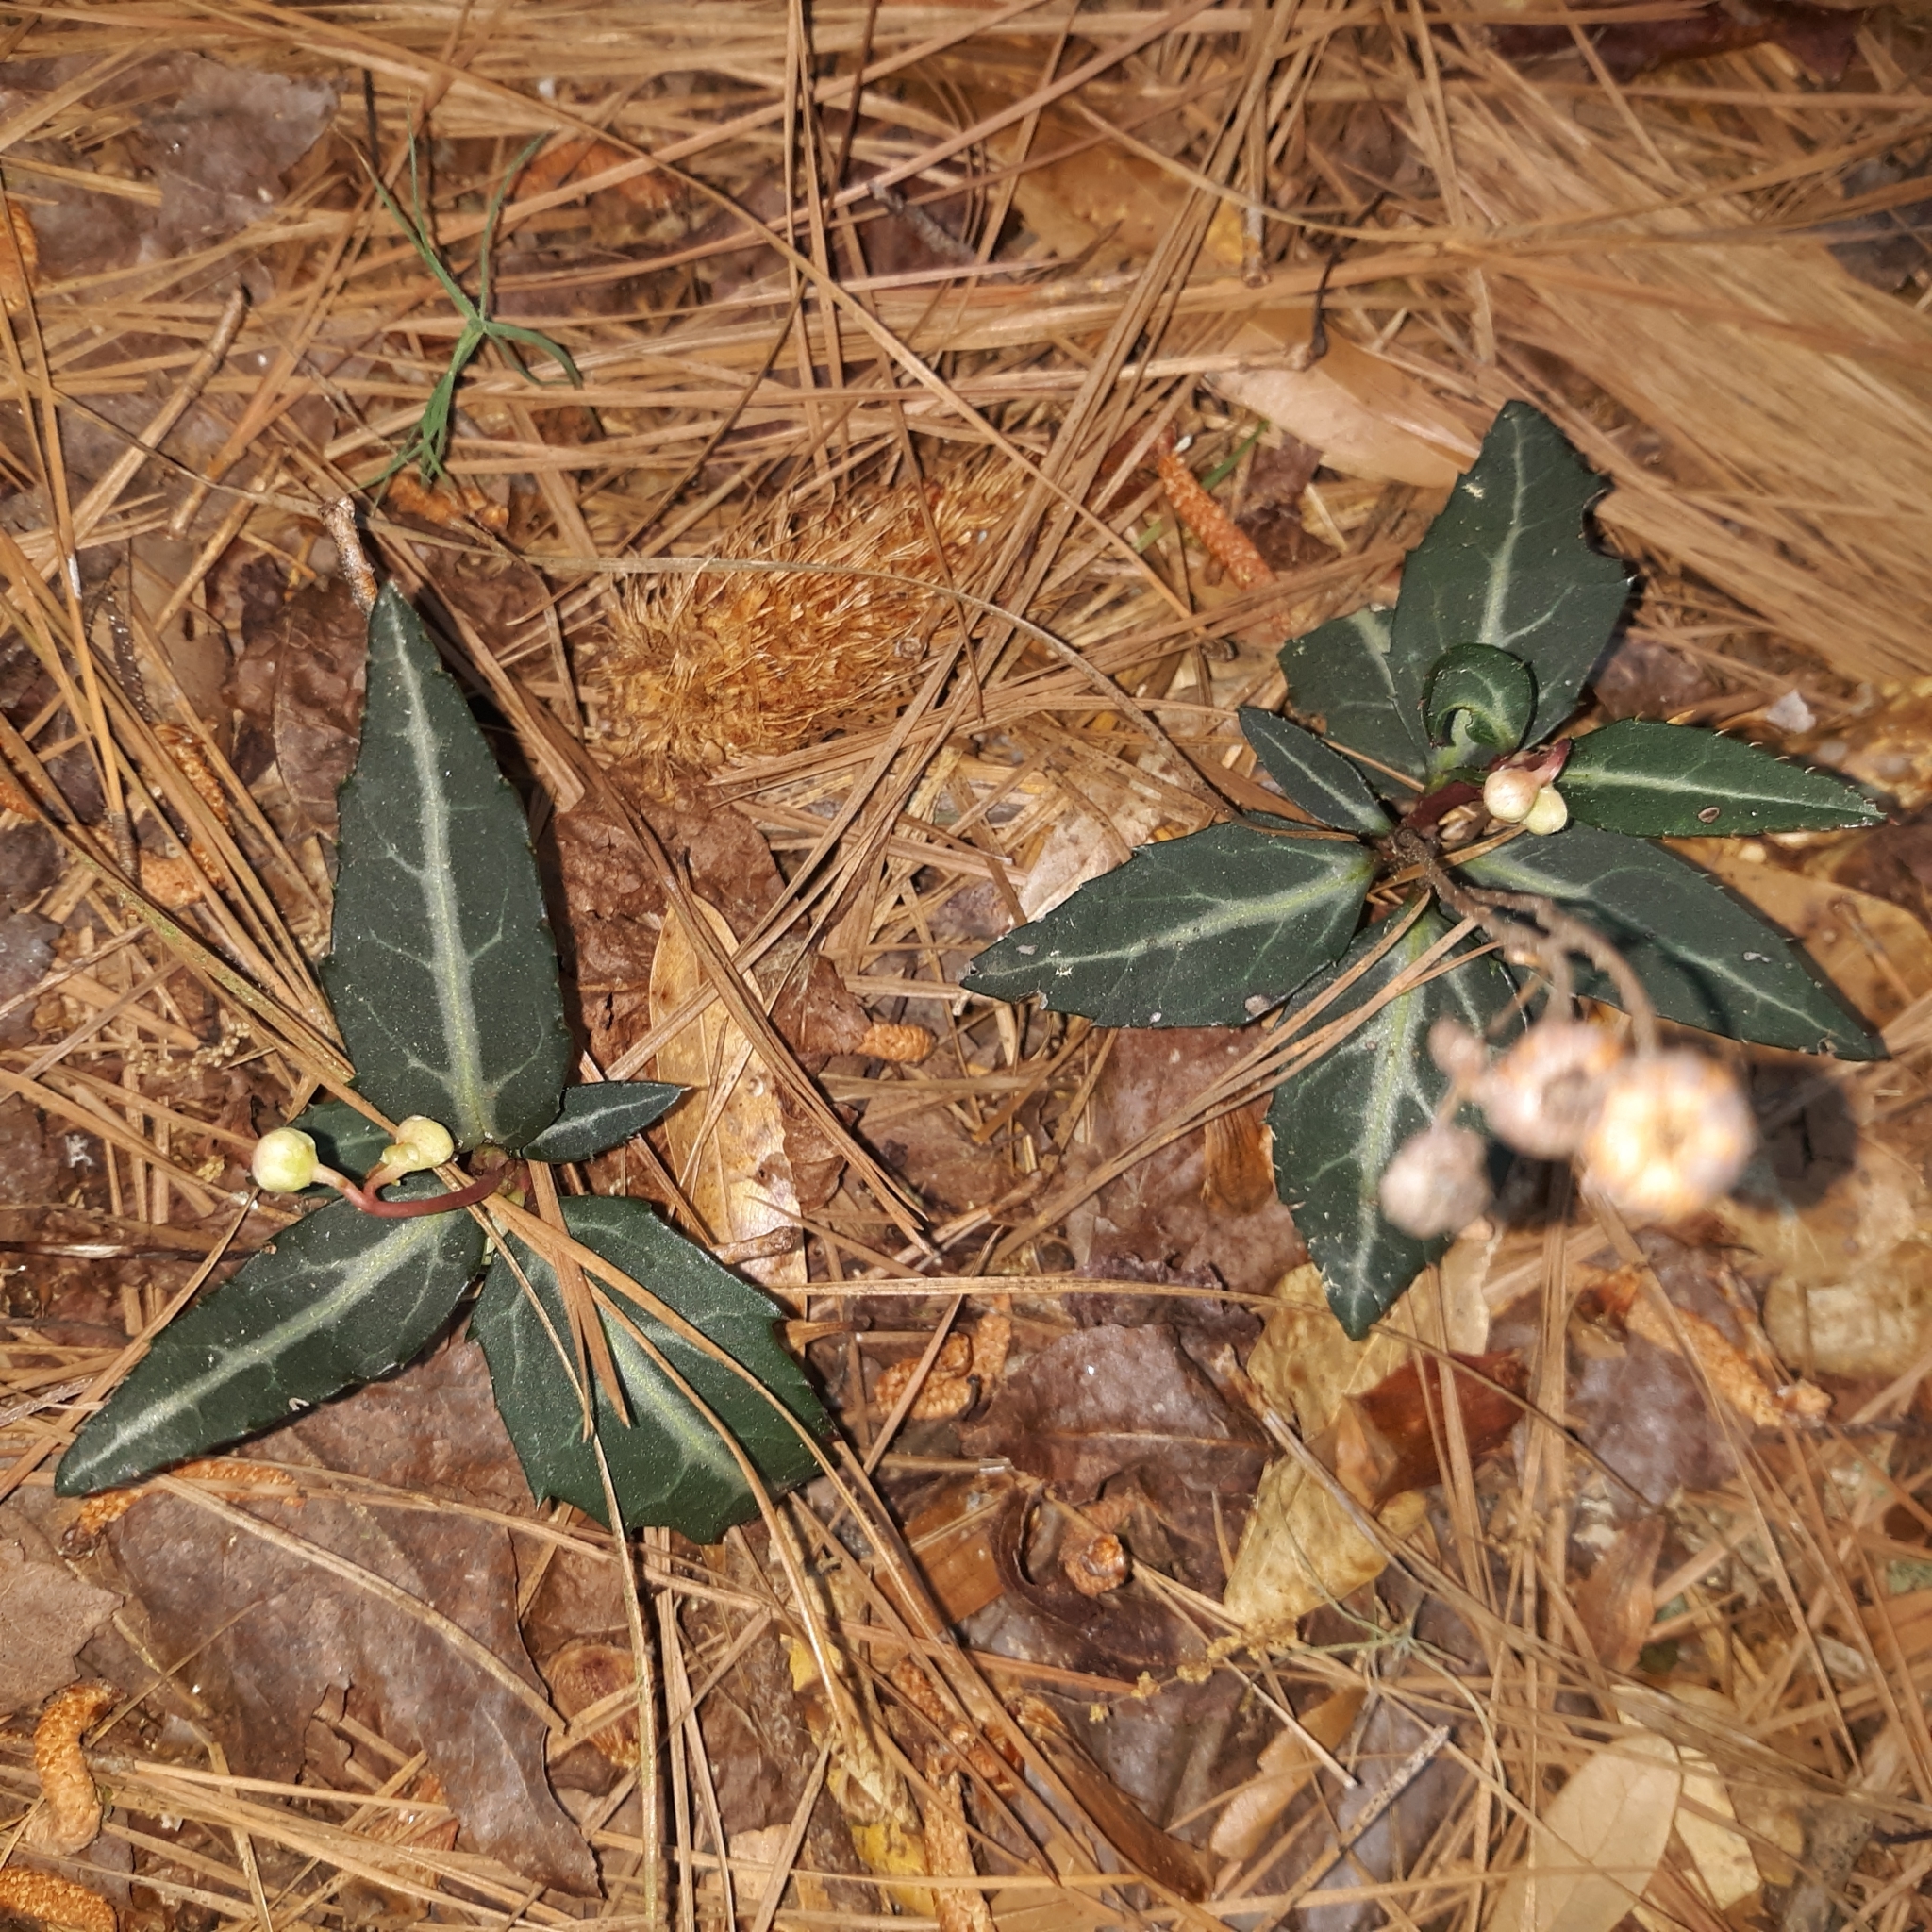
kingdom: Plantae
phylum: Tracheophyta
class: Magnoliopsida
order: Ericales
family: Ericaceae
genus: Chimaphila
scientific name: Chimaphila maculata
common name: Spotted pipsissewa
